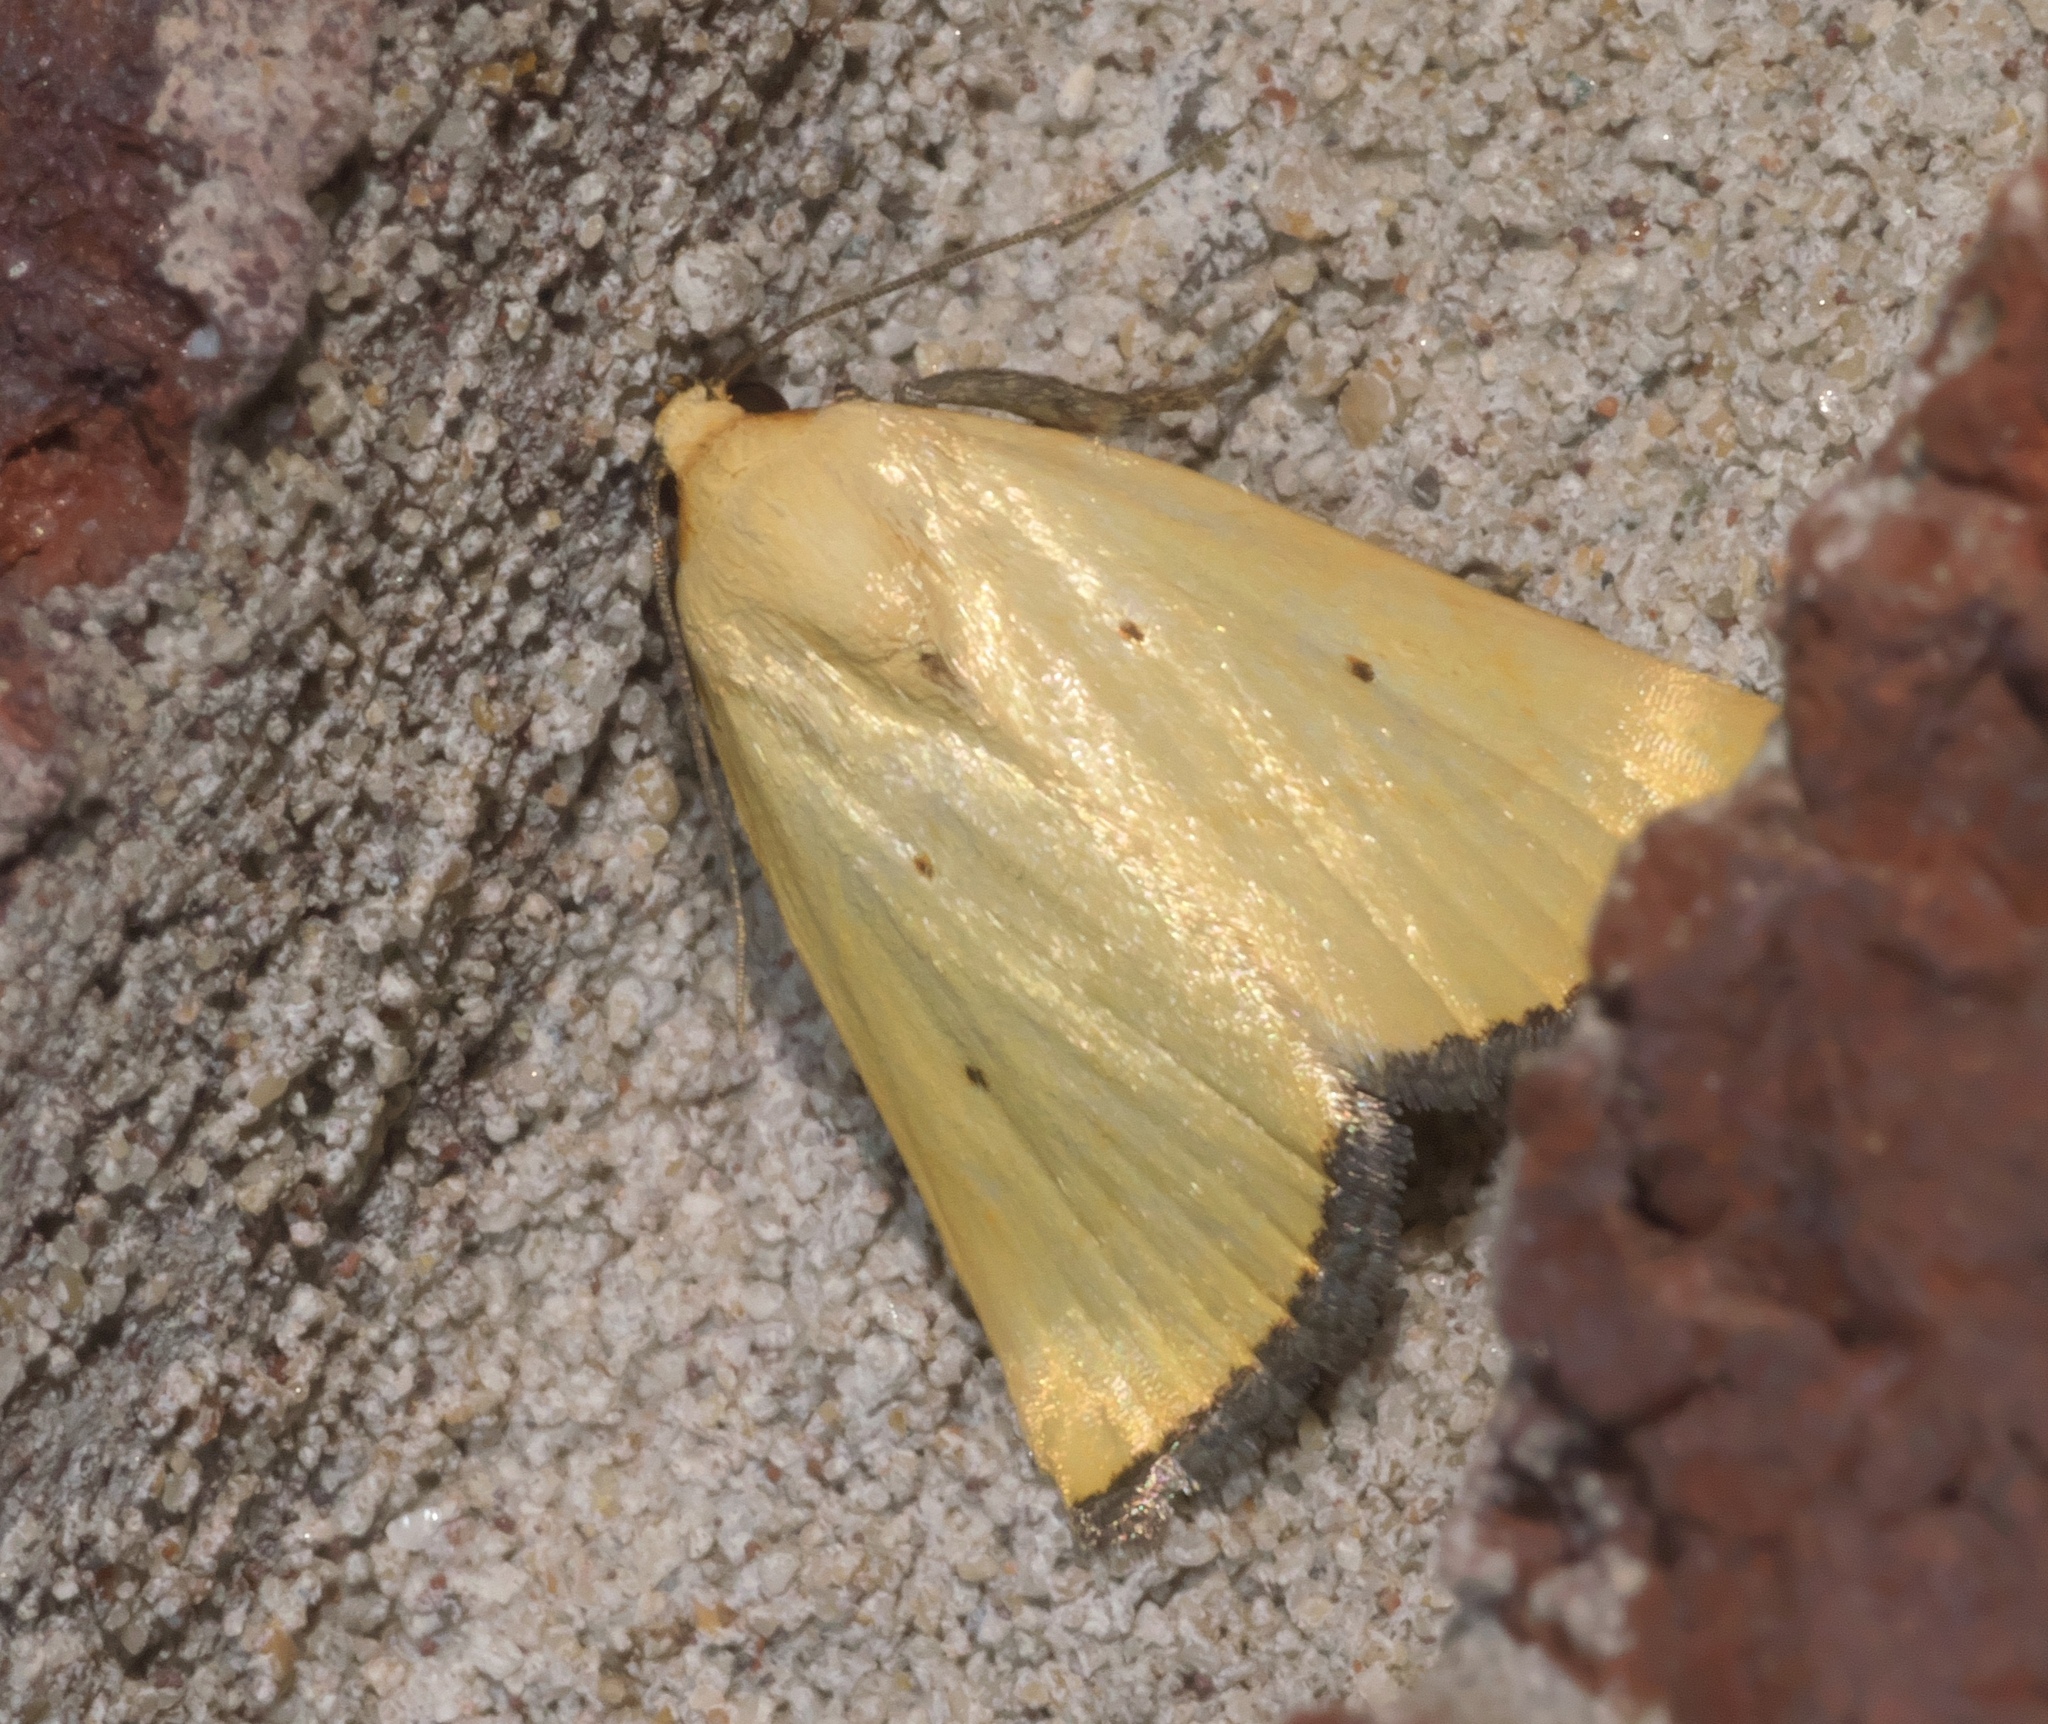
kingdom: Animalia
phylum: Arthropoda
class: Insecta
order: Lepidoptera
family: Noctuidae
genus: Marimatha
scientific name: Marimatha nigrofimbria
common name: Black-bordered lemon moth
